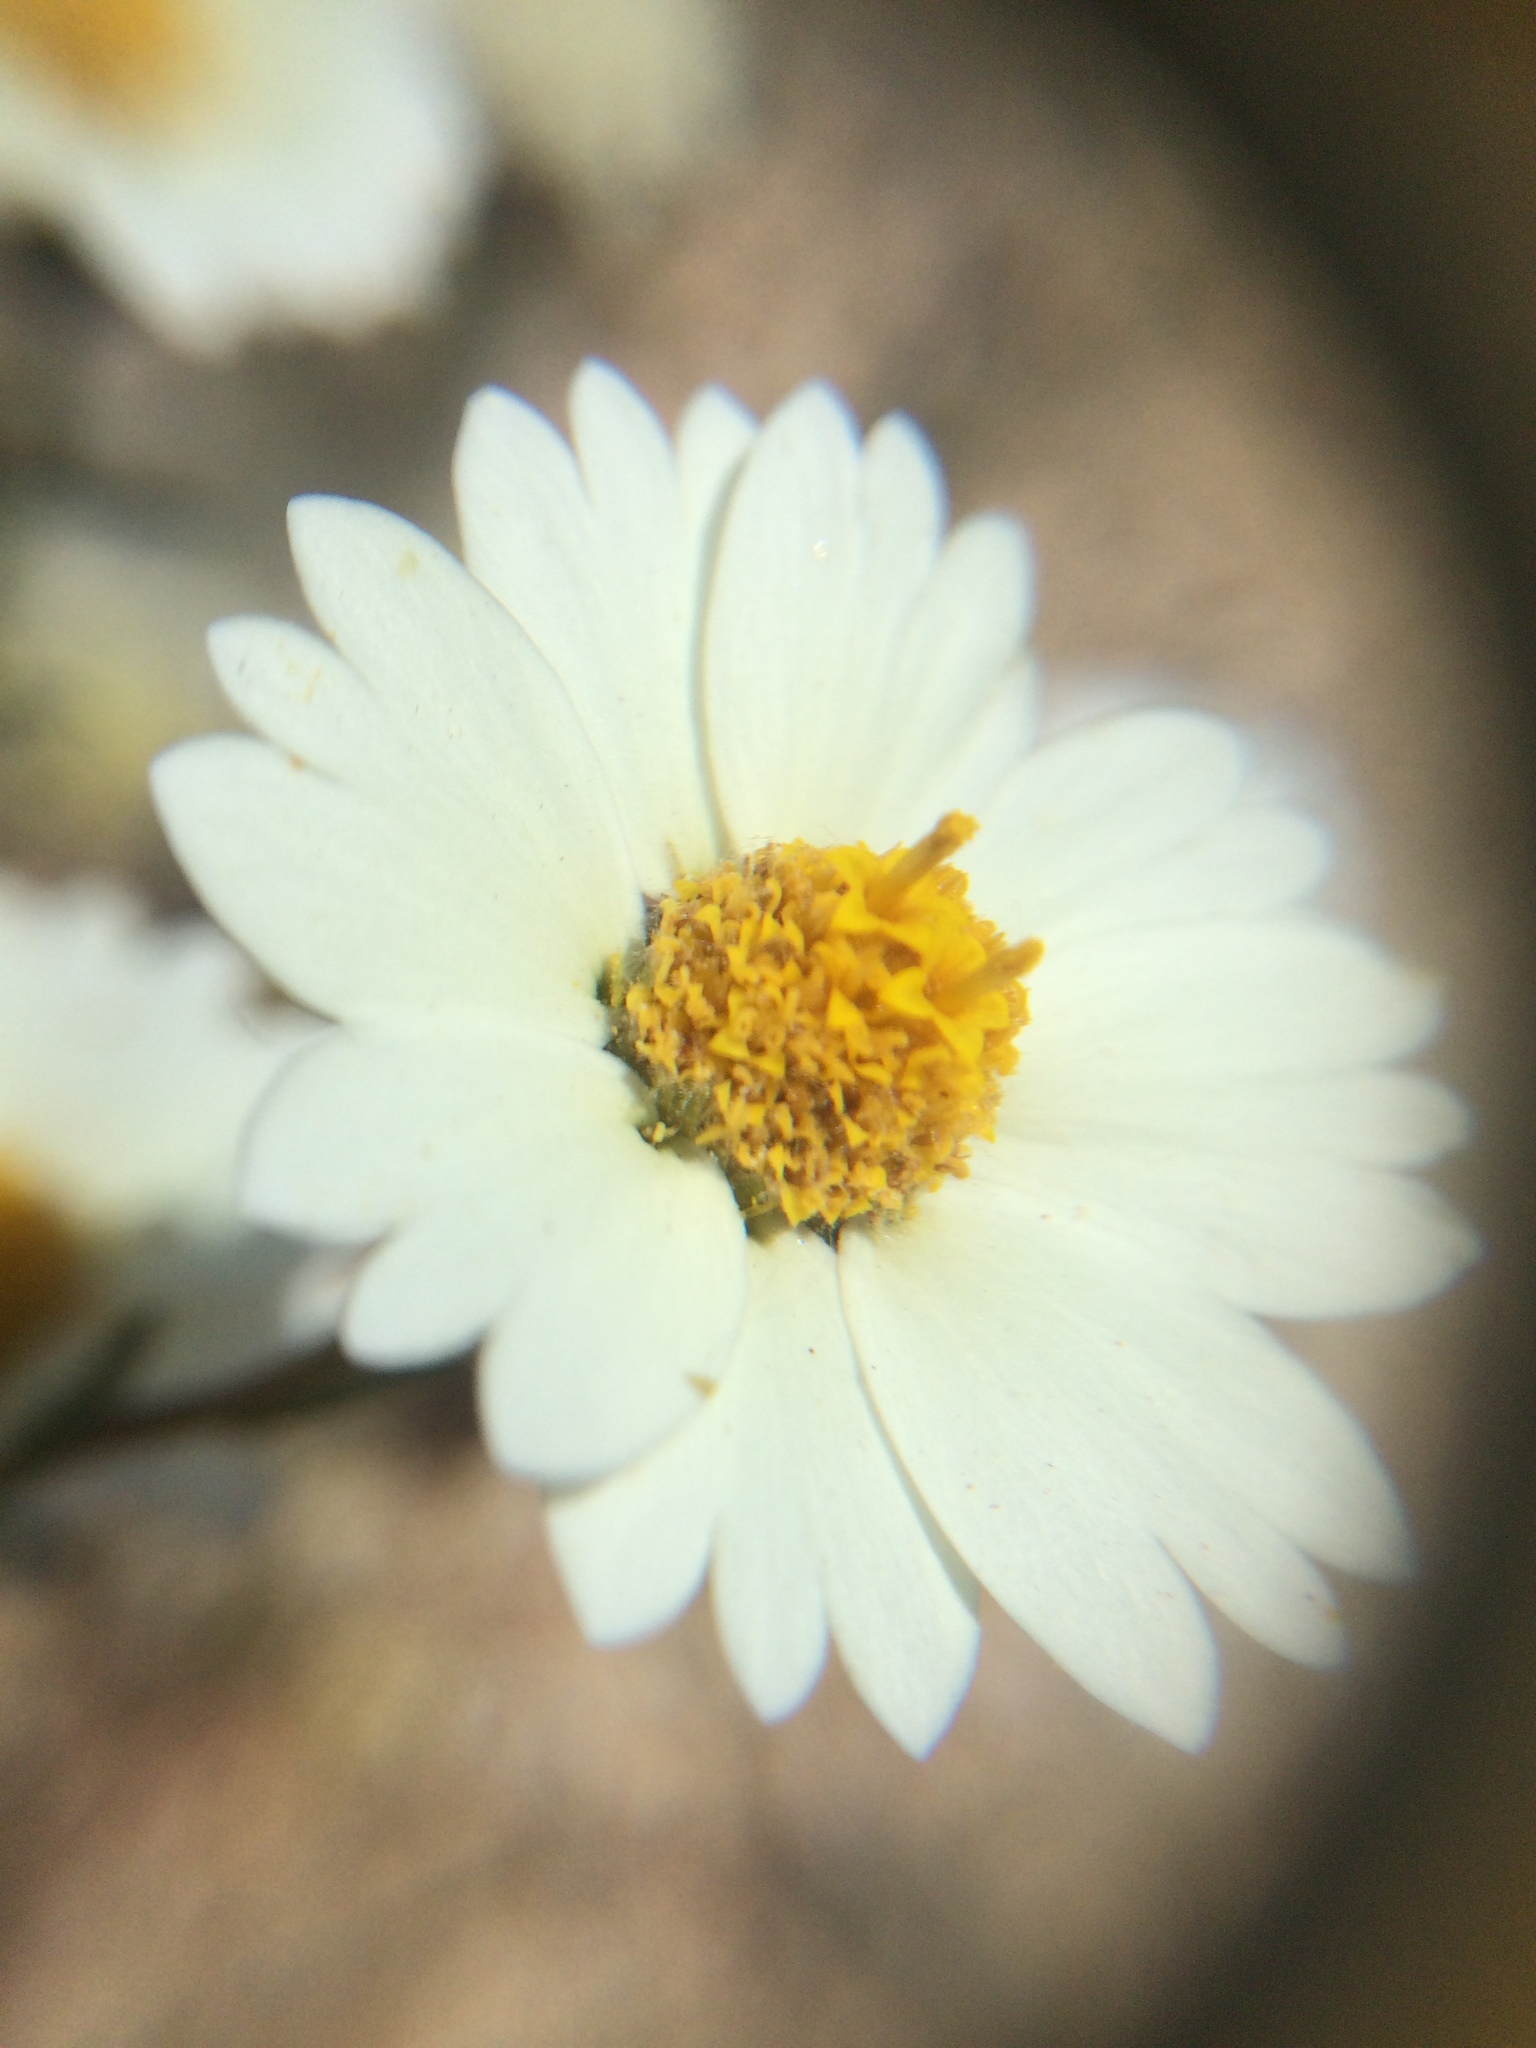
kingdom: Plantae
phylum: Tracheophyta
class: Magnoliopsida
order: Asterales
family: Asteraceae
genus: Layia
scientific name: Layia glandulosa
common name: White layia
